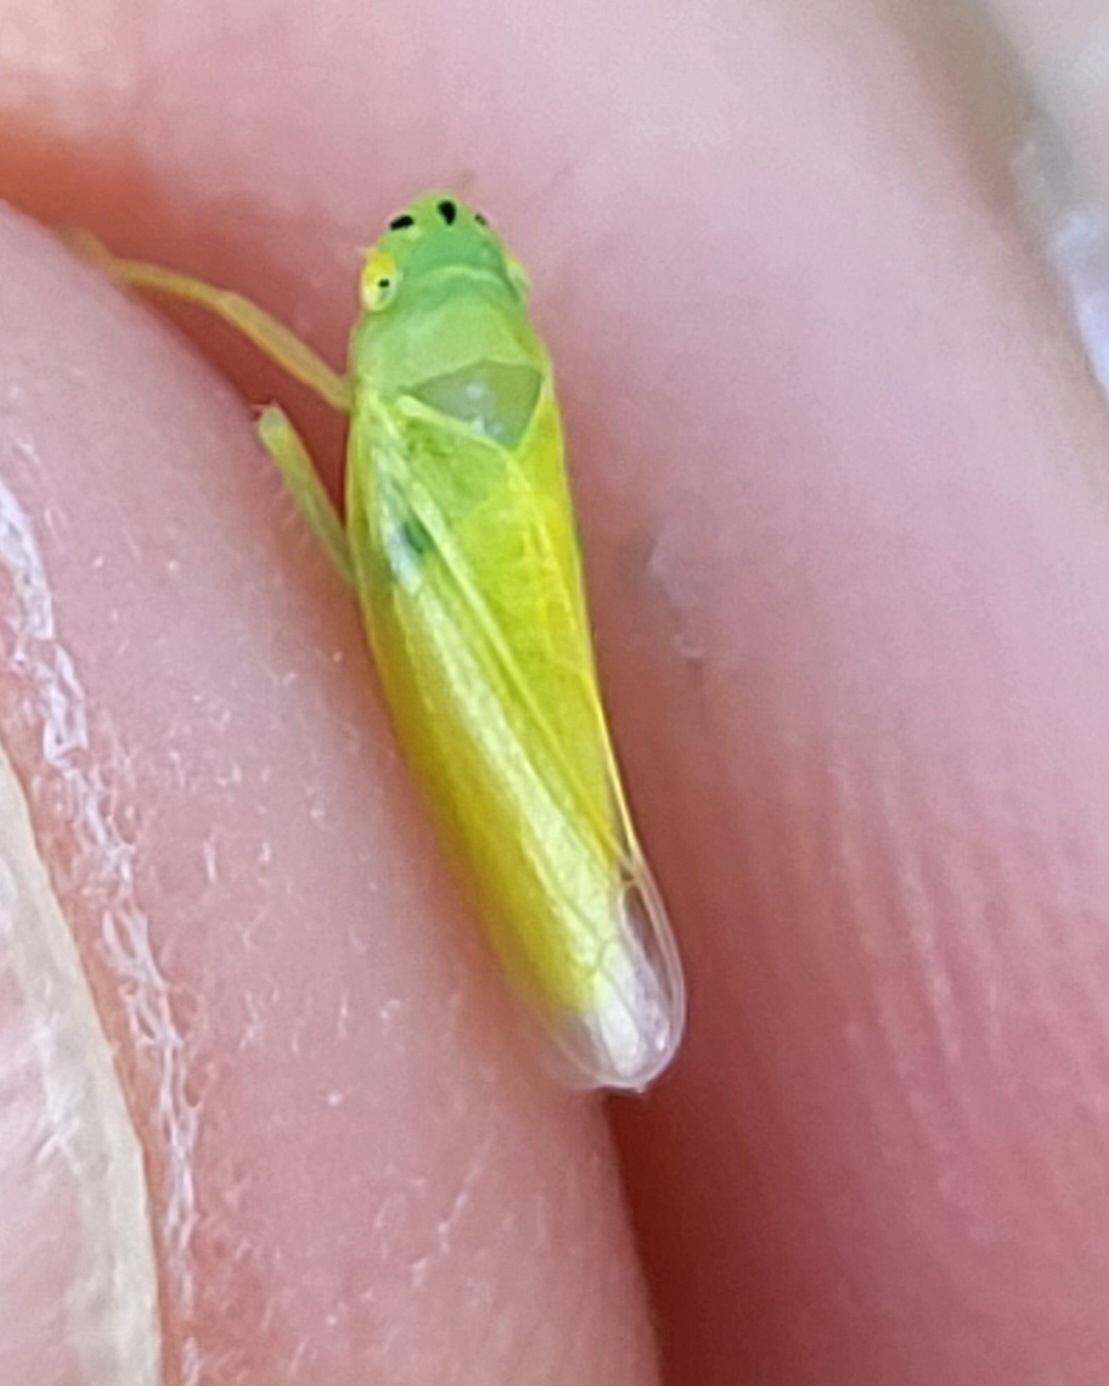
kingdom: Animalia
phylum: Arthropoda
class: Insecta
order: Hemiptera
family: Cicadellidae
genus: Pagaronia
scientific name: Pagaronia minor
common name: Leafhopper
